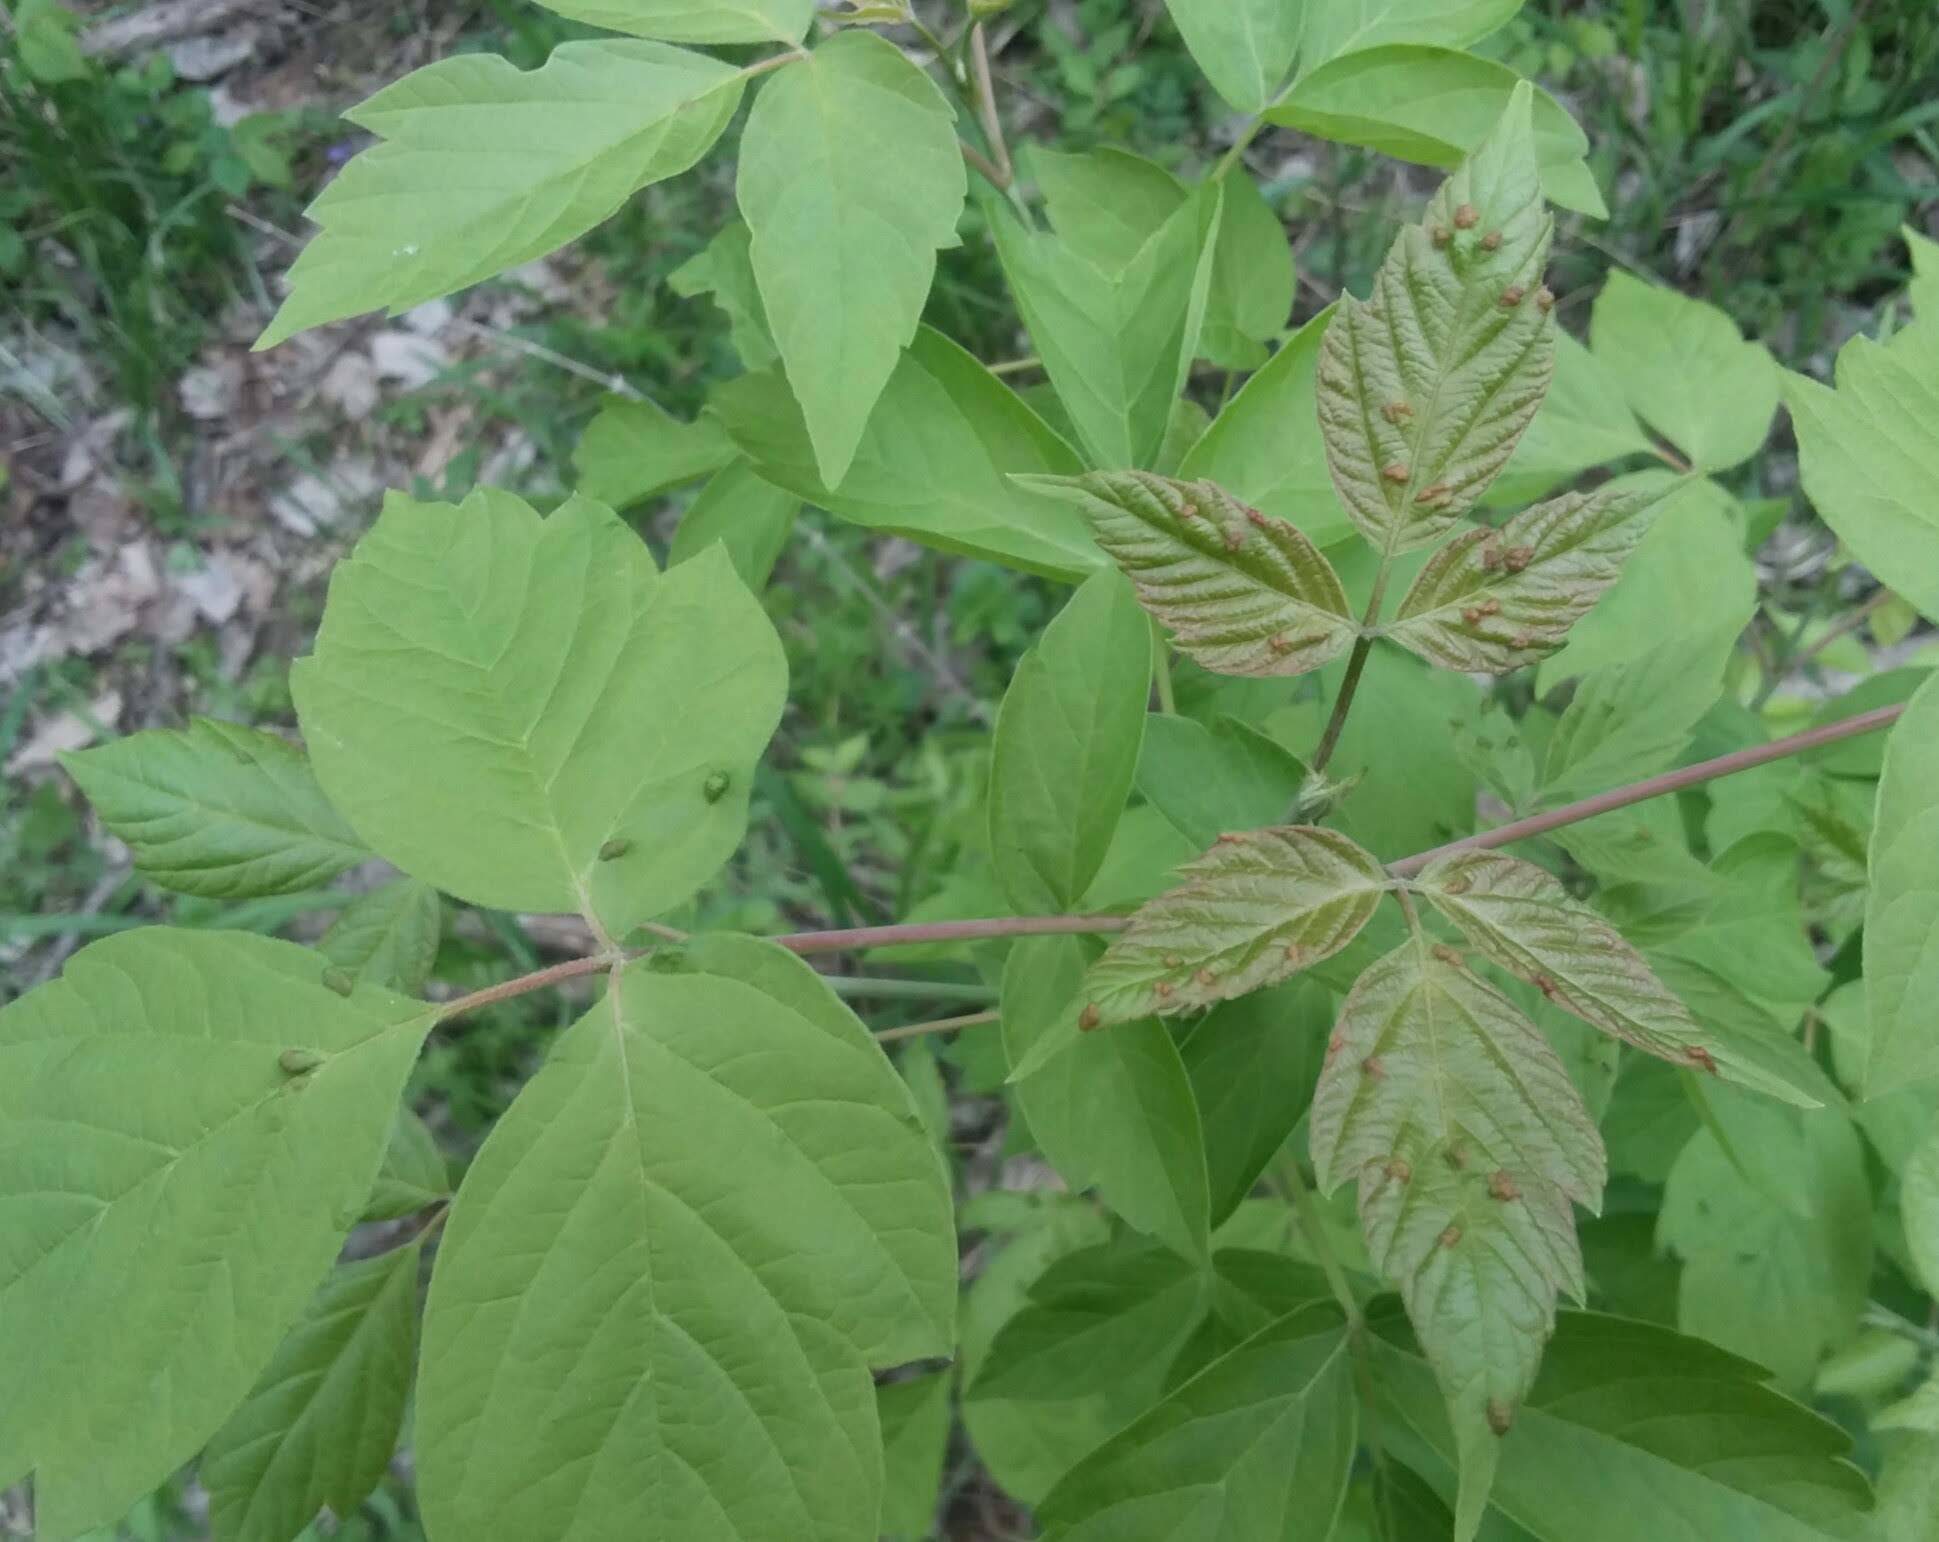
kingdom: Animalia
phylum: Arthropoda
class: Arachnida
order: Trombidiformes
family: Eriophyidae
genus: Aceria
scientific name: Aceria
